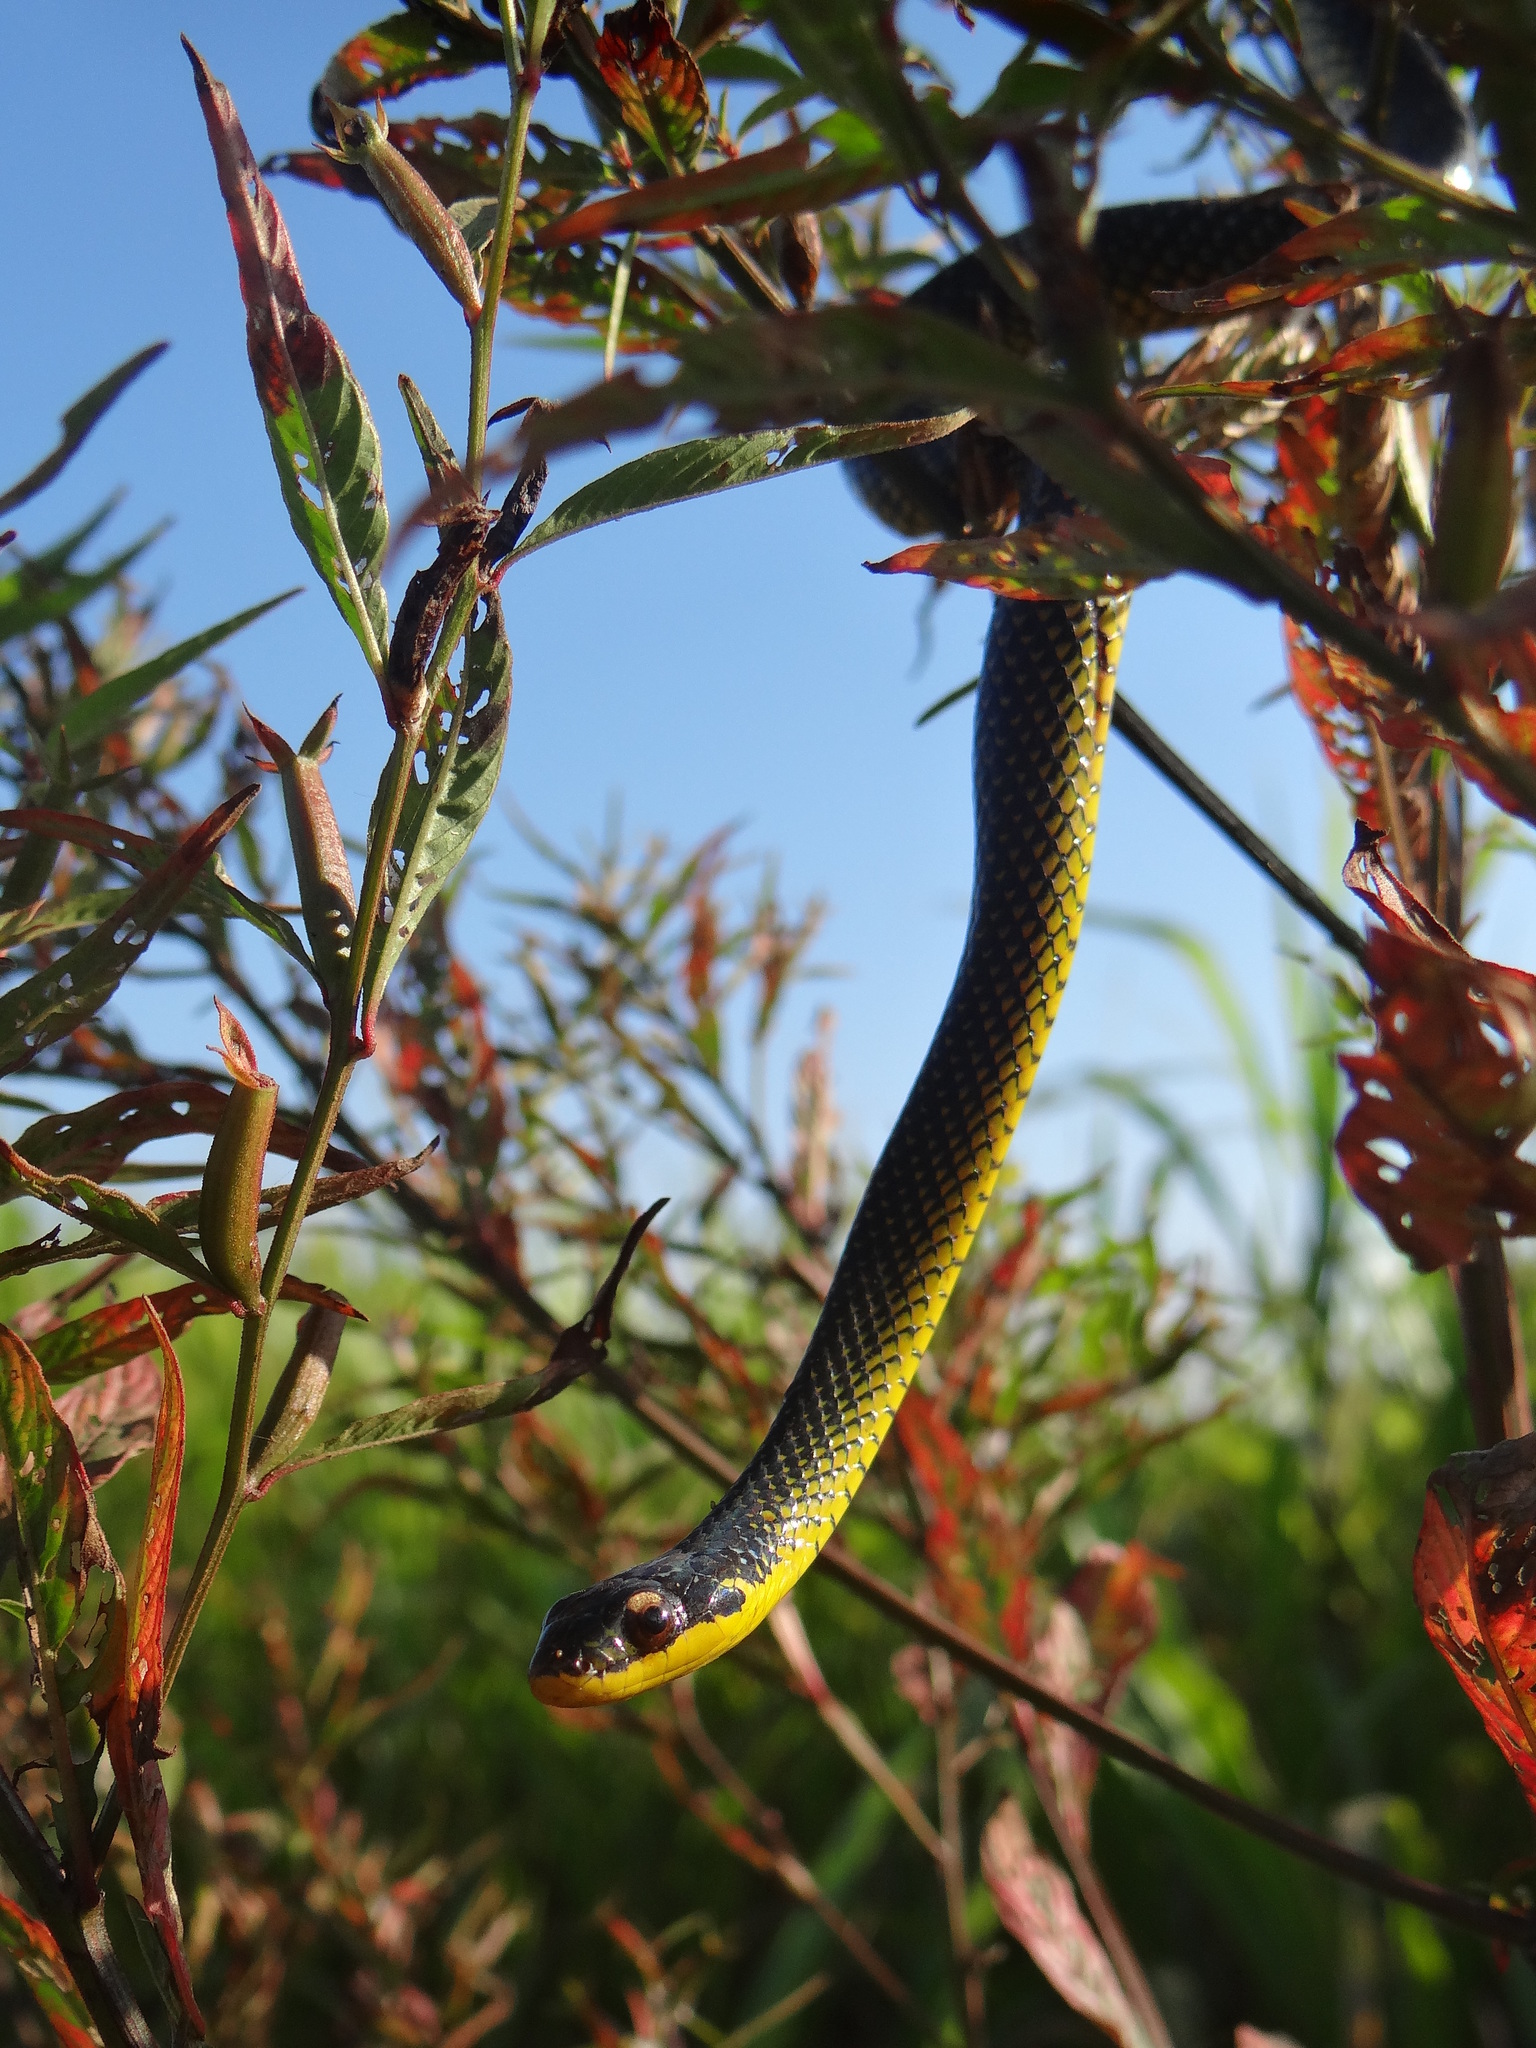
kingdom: Animalia
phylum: Chordata
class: Squamata
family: Colubridae
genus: Erythrolamprus
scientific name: Erythrolamprus dorsocorallinus
